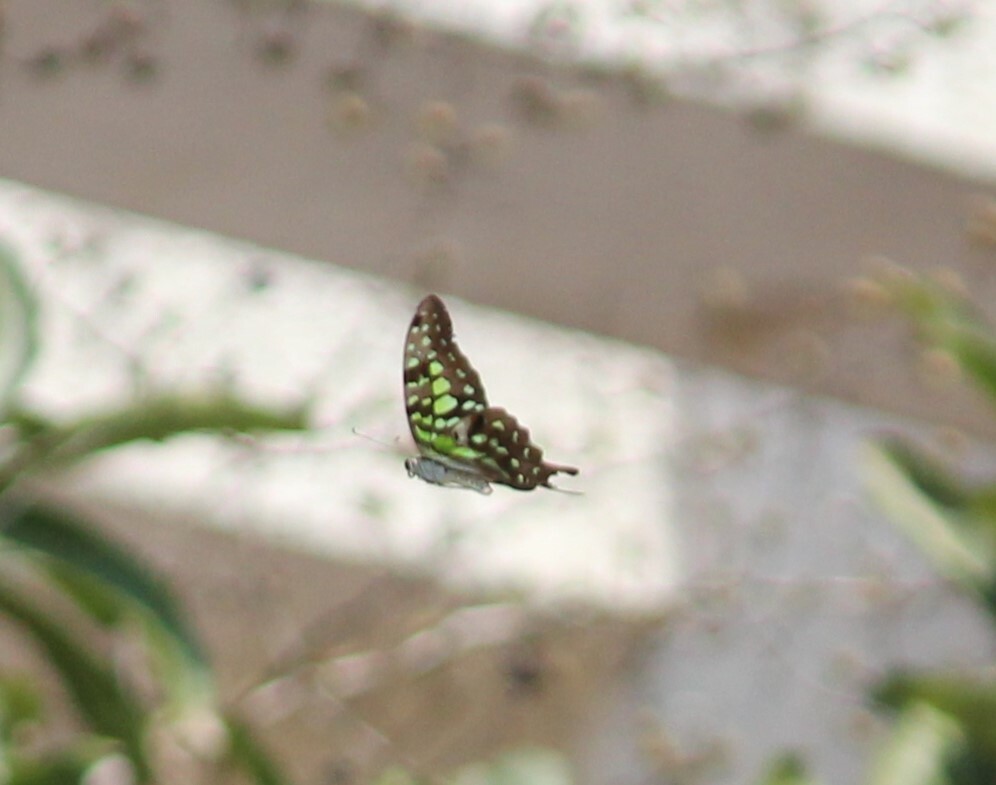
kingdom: Animalia
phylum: Arthropoda
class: Insecta
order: Lepidoptera
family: Papilionidae
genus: Graphium
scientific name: Graphium agamemnon
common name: Tailed jay
